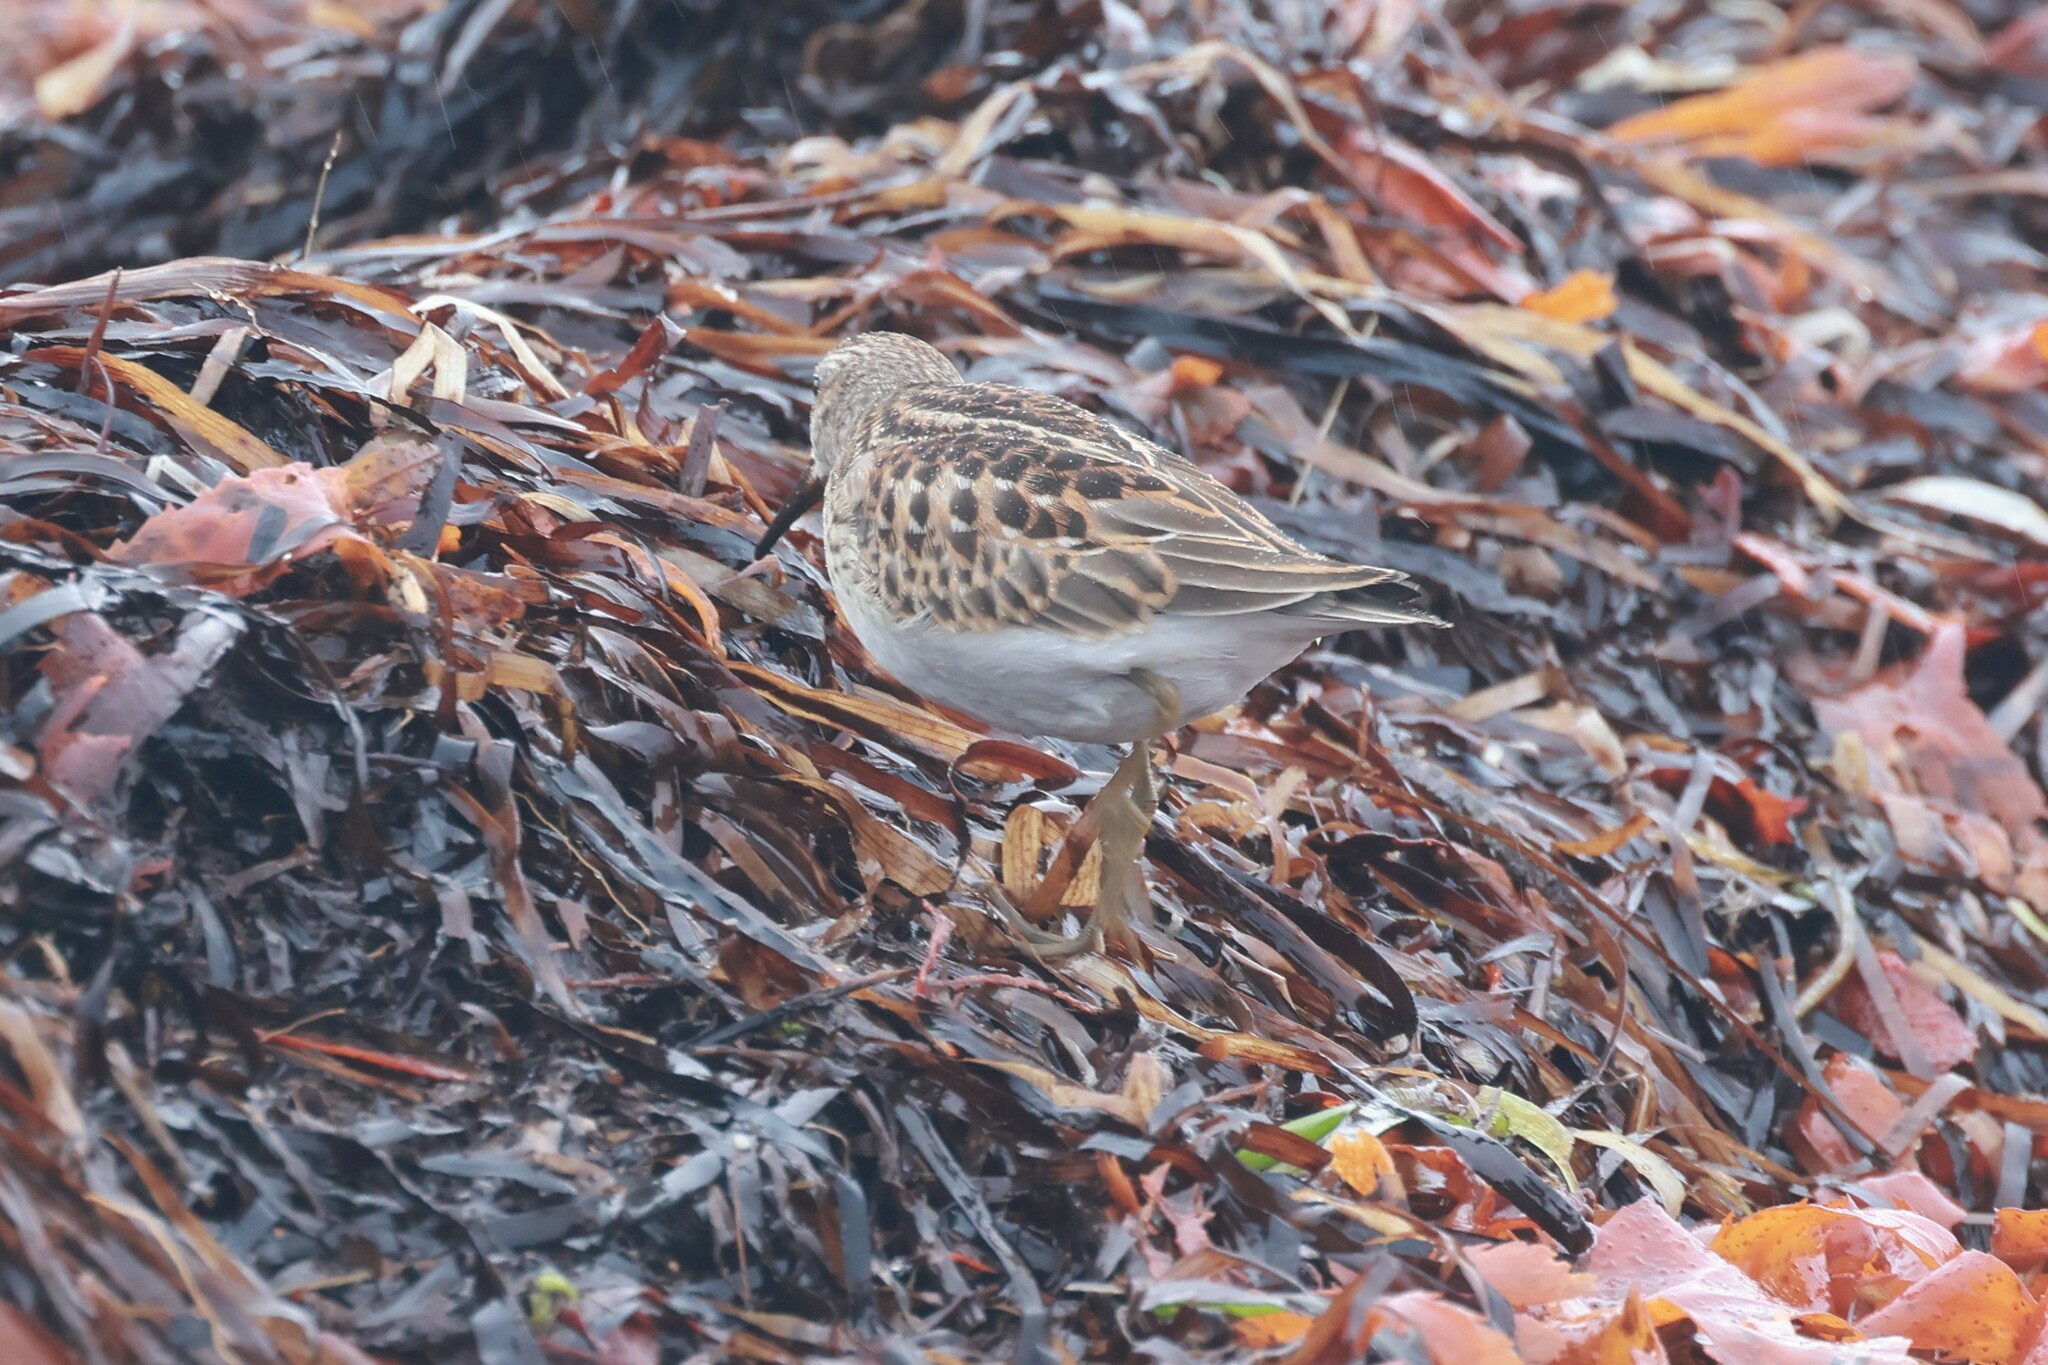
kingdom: Animalia
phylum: Chordata
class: Aves
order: Charadriiformes
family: Scolopacidae
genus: Calidris
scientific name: Calidris minutilla
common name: Least sandpiper
